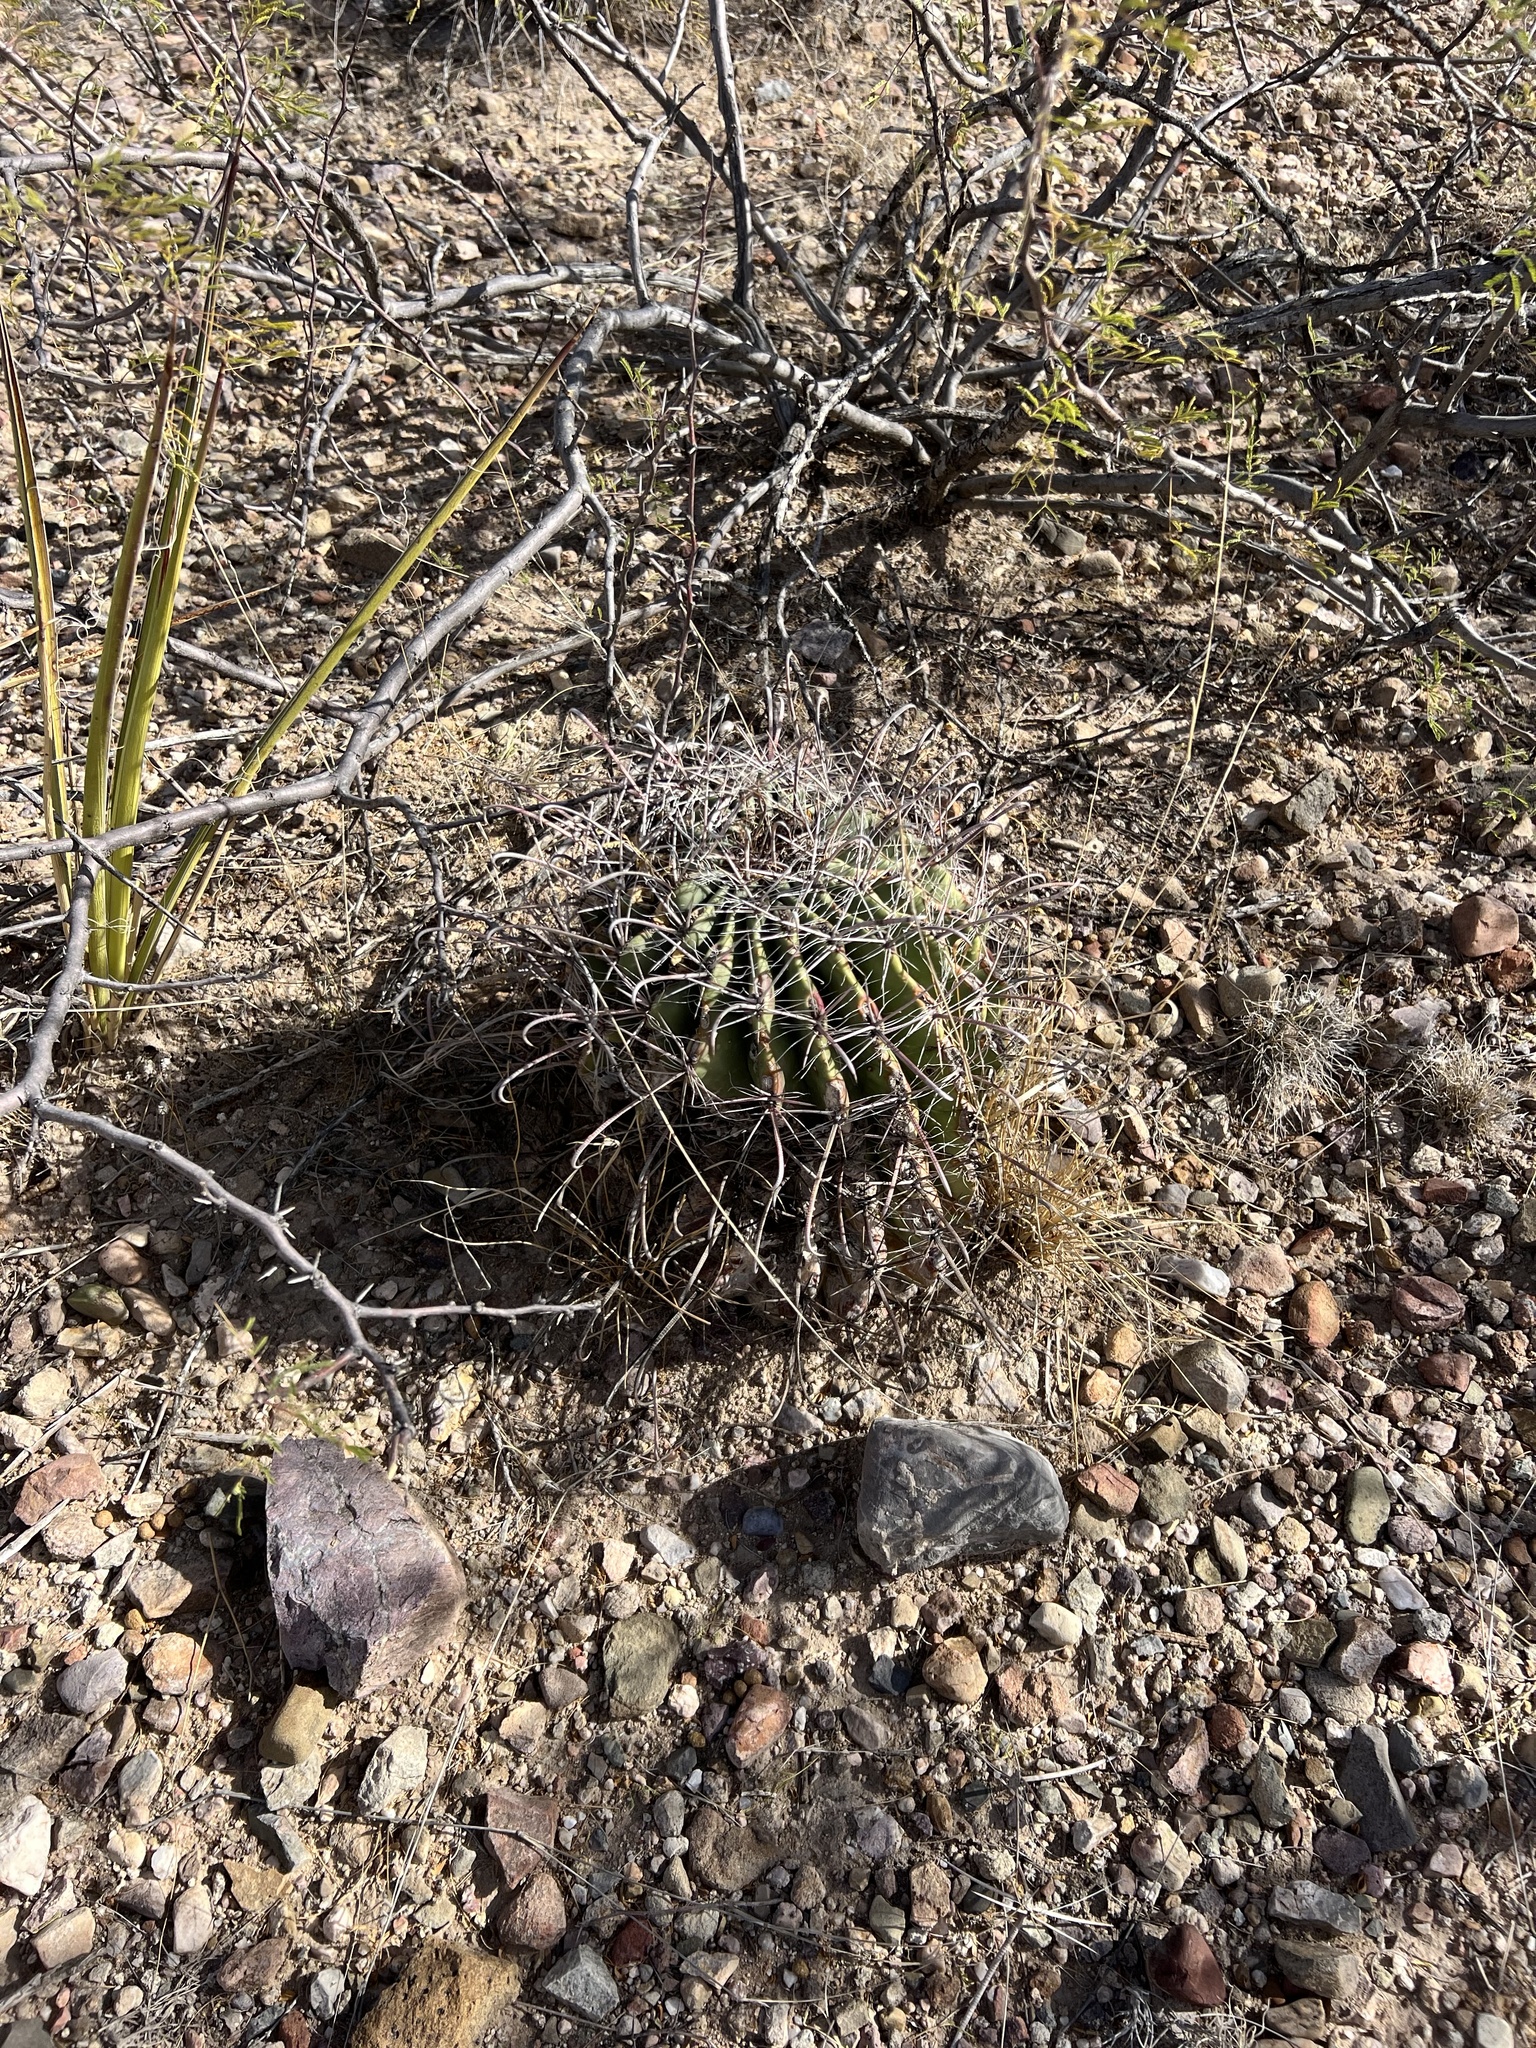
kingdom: Plantae
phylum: Tracheophyta
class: Magnoliopsida
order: Caryophyllales
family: Cactaceae
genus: Ferocactus
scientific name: Ferocactus wislizeni
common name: Candy barrel cactus
